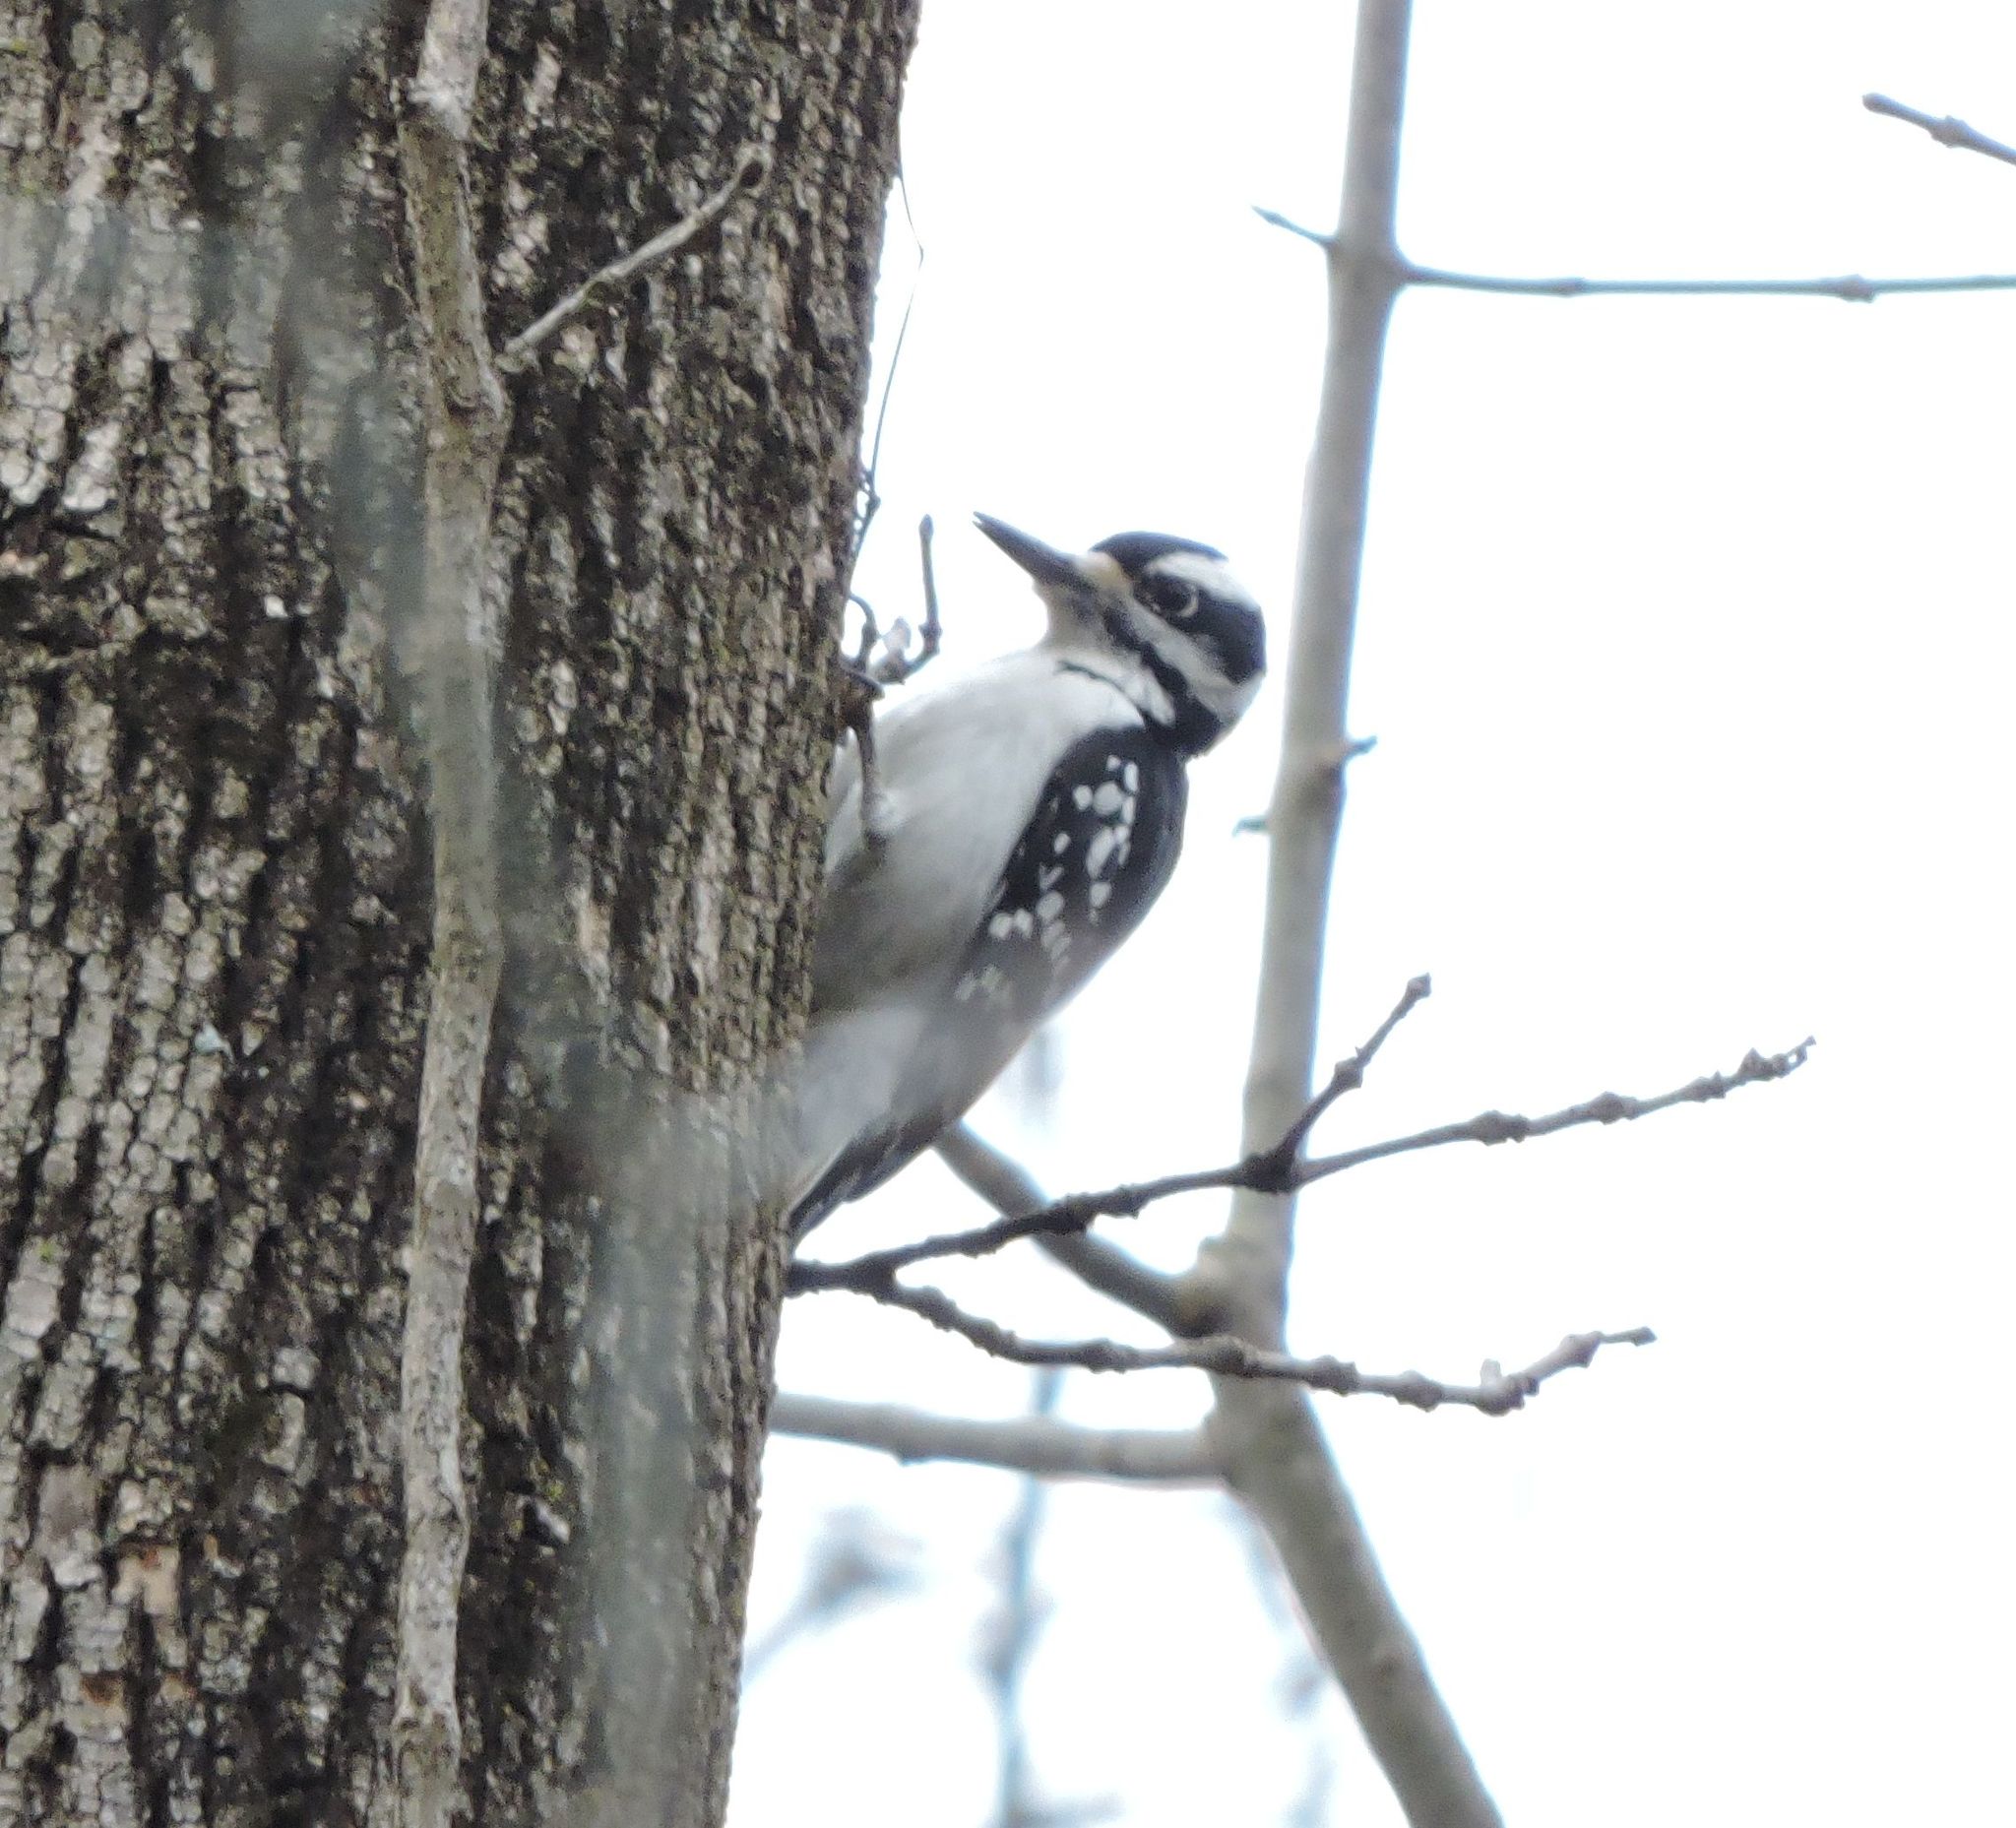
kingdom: Animalia
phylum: Chordata
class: Aves
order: Piciformes
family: Picidae
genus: Leuconotopicus
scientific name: Leuconotopicus villosus
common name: Hairy woodpecker
